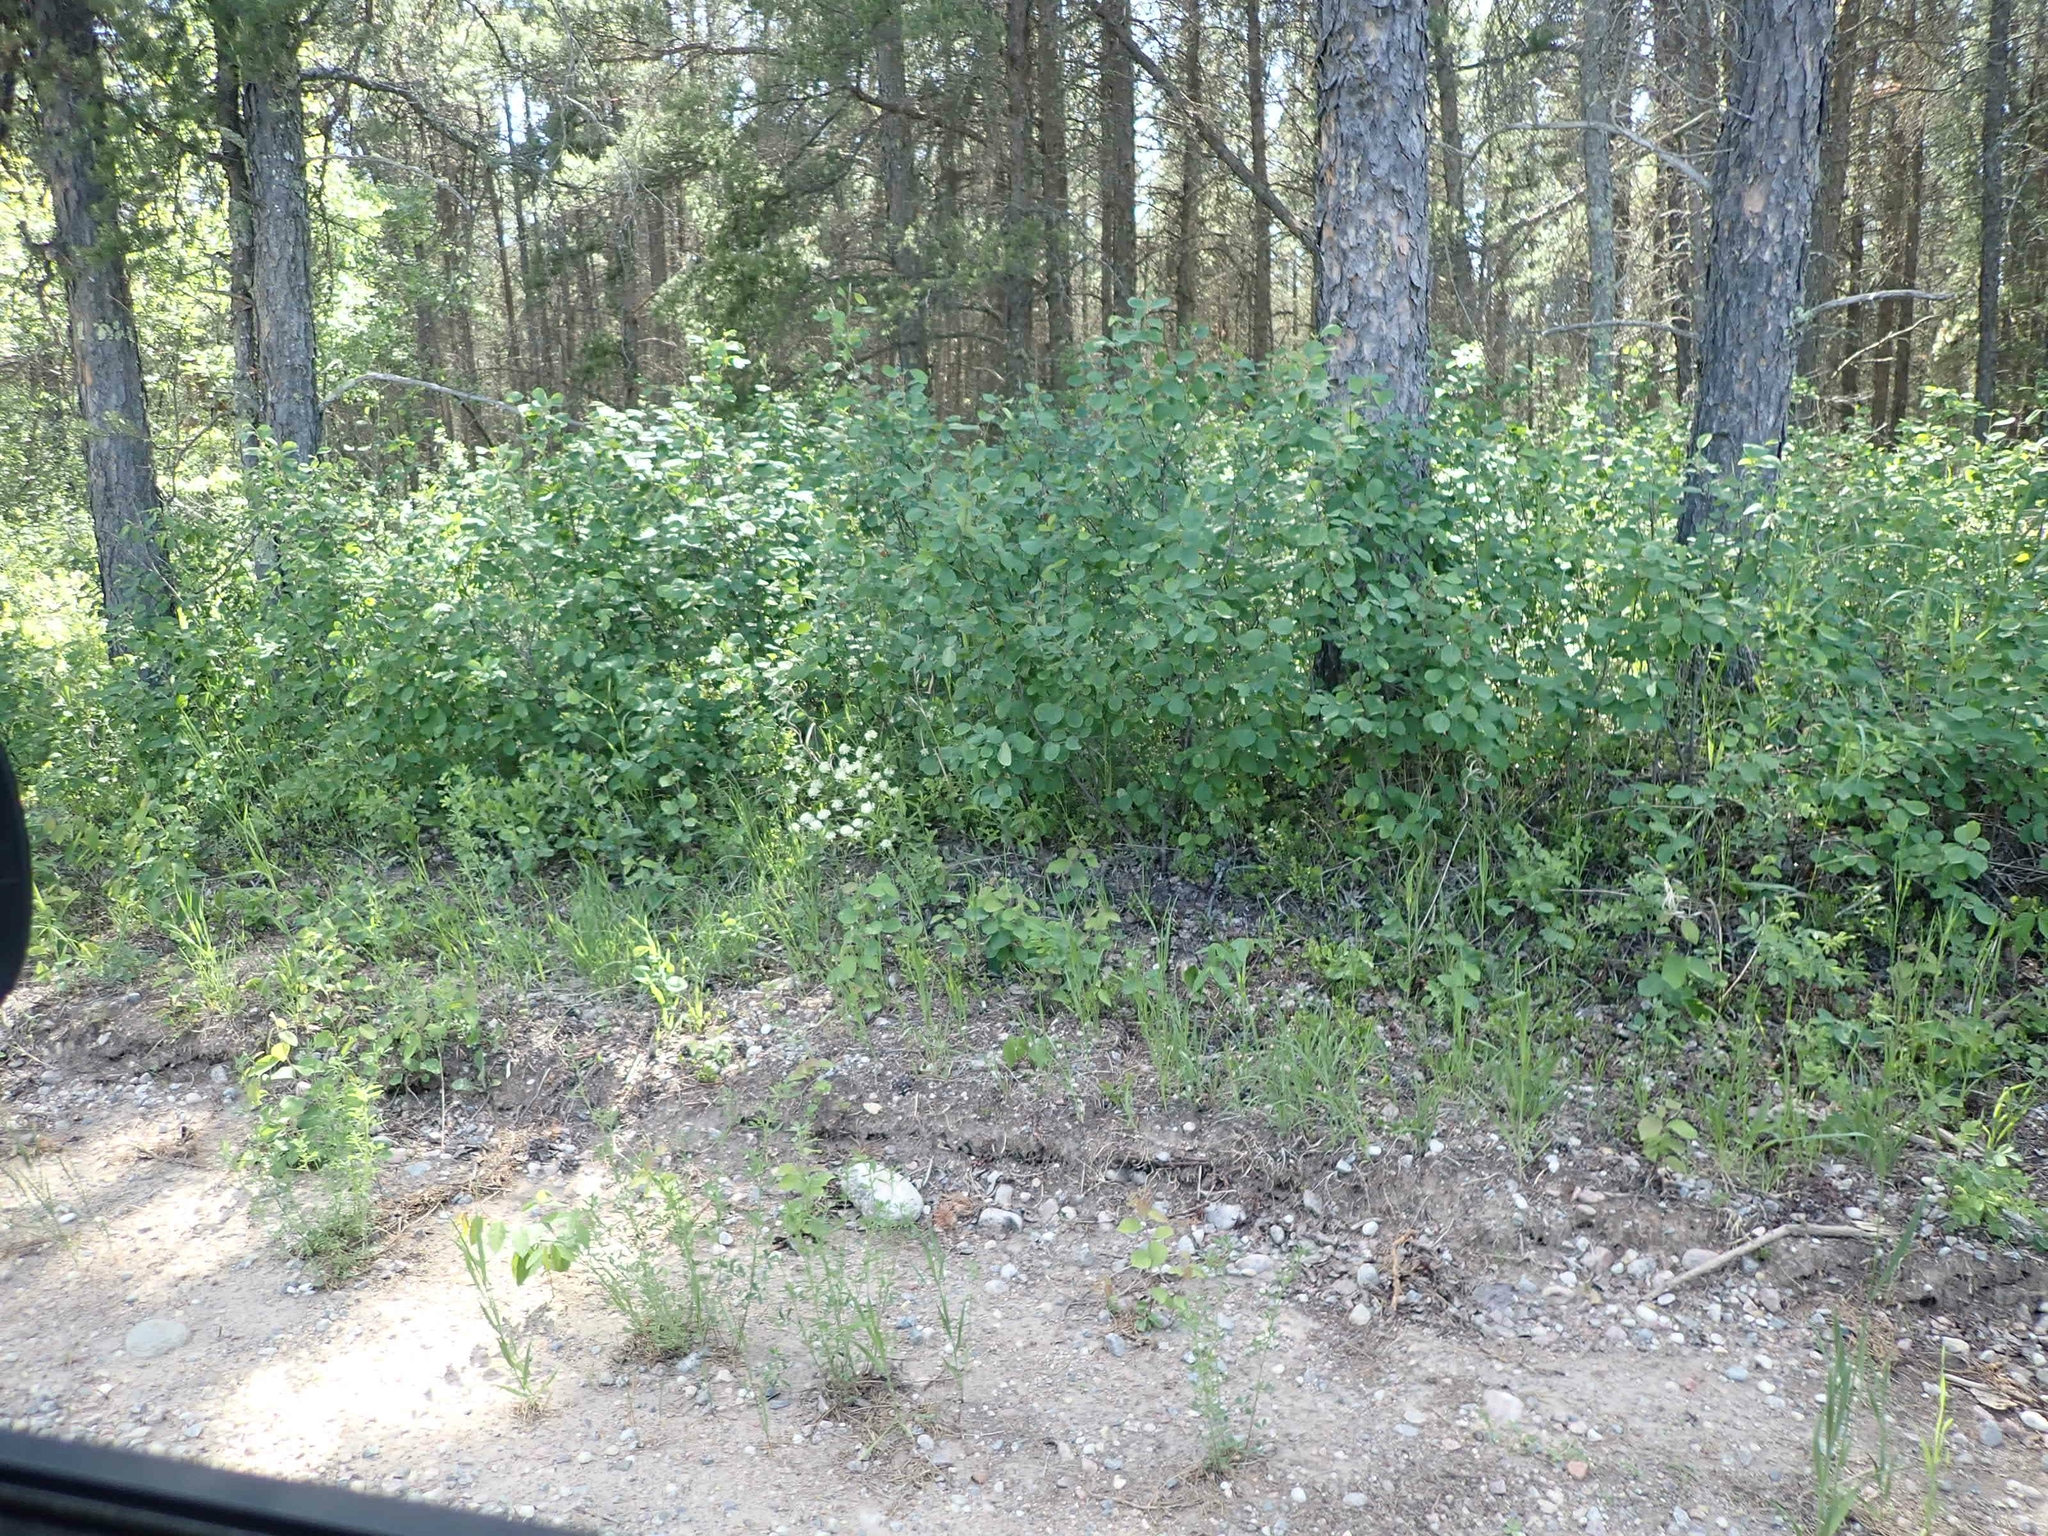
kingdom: Plantae
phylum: Tracheophyta
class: Magnoliopsida
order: Rosales
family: Rhamnaceae
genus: Ceanothus
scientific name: Ceanothus herbaceus
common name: Inland ceanothus
